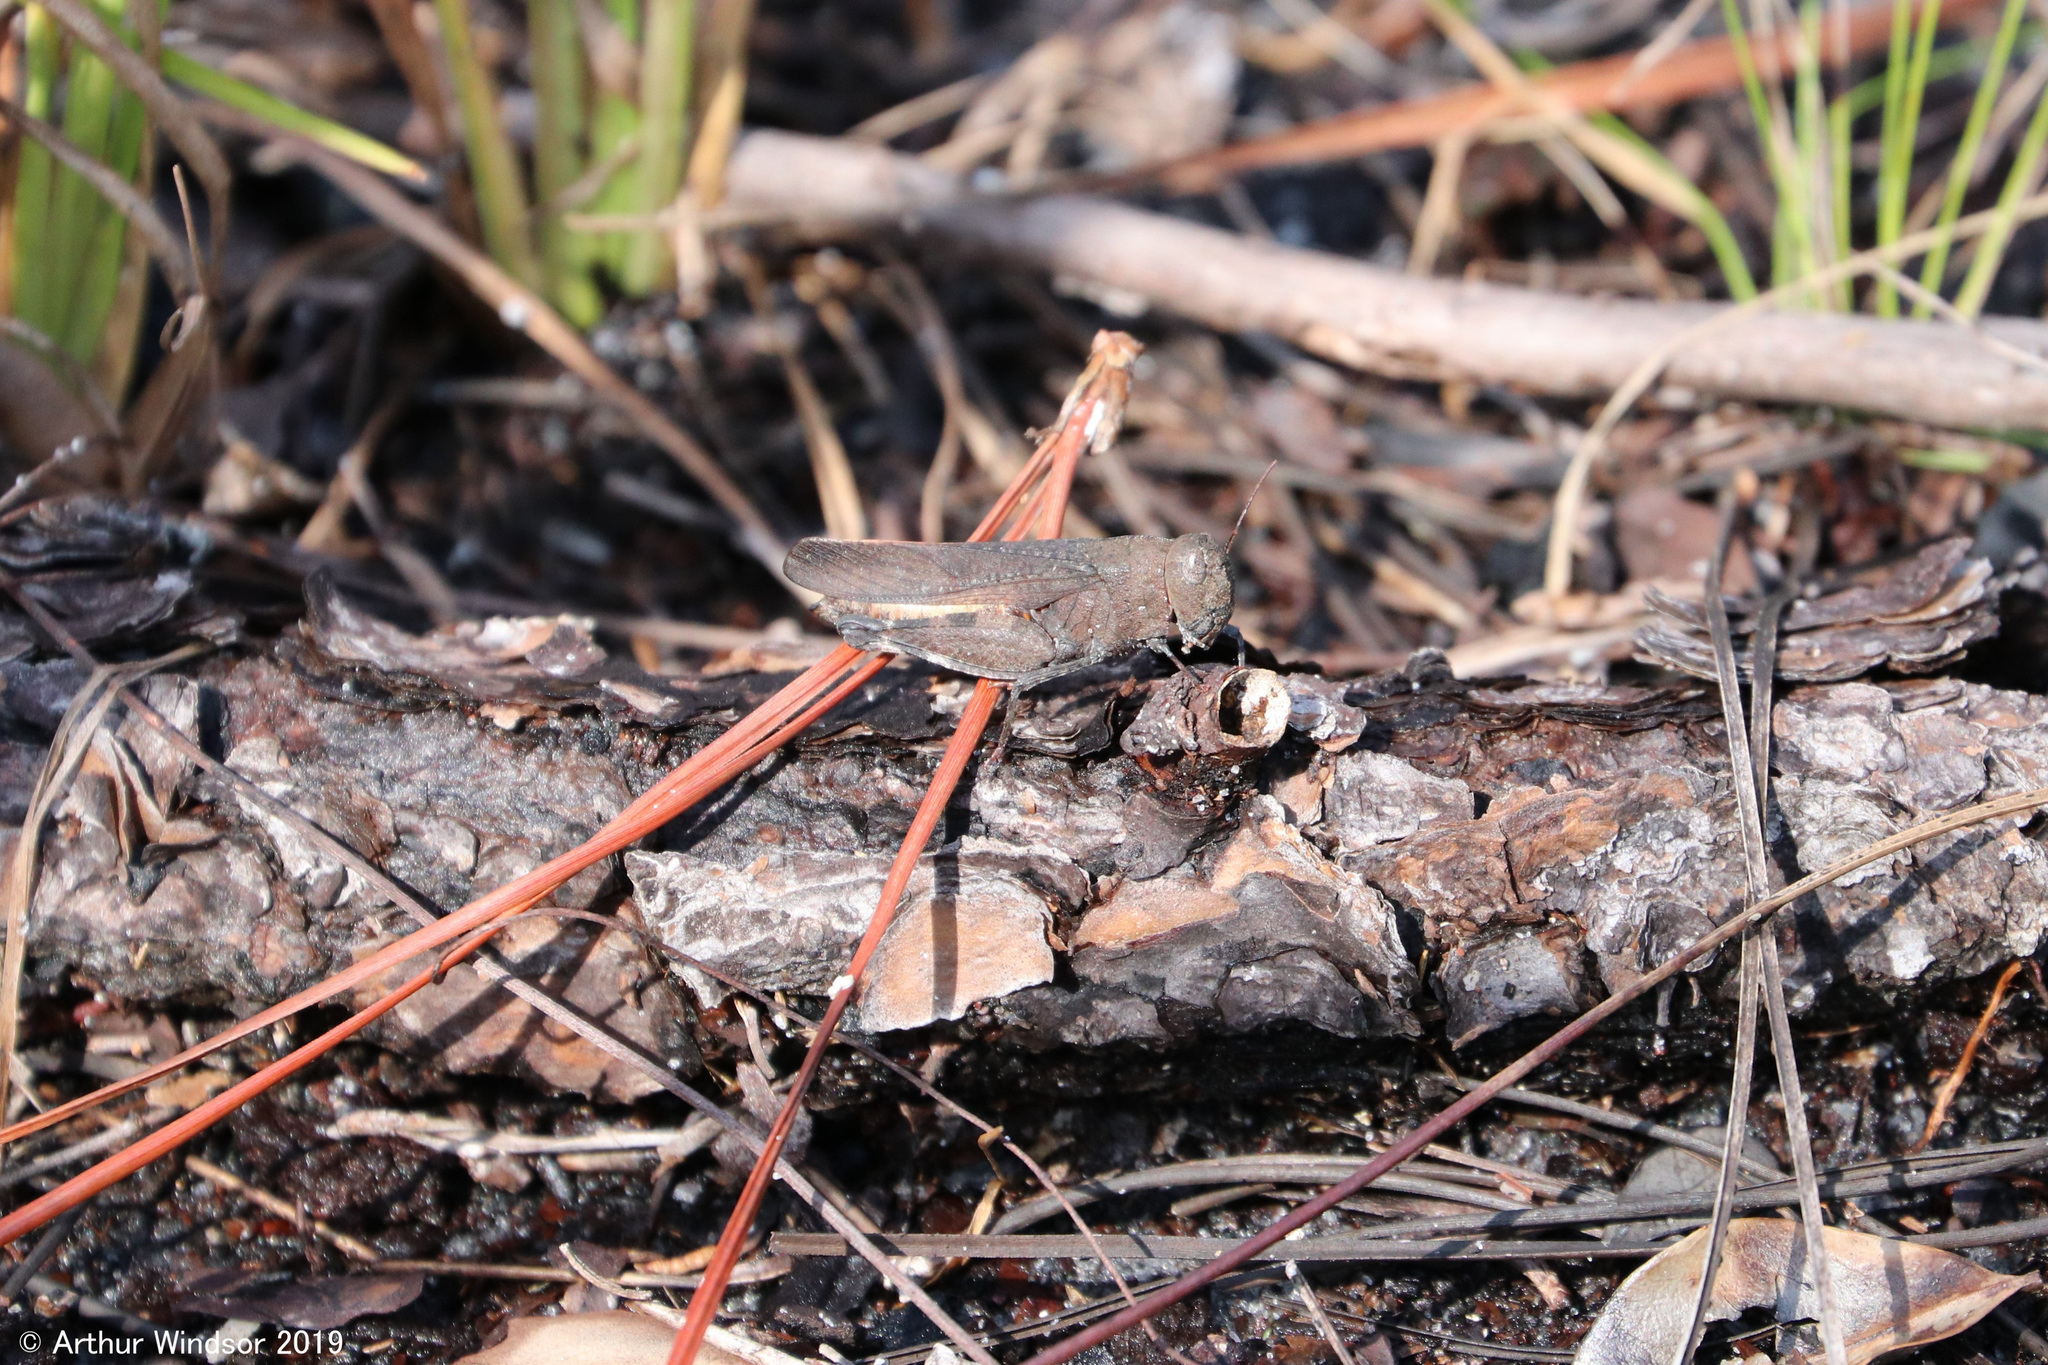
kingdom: Animalia
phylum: Arthropoda
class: Insecta
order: Orthoptera
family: Acrididae
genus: Arphia
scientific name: Arphia granulata
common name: Southern yellow-winged grasshopper
